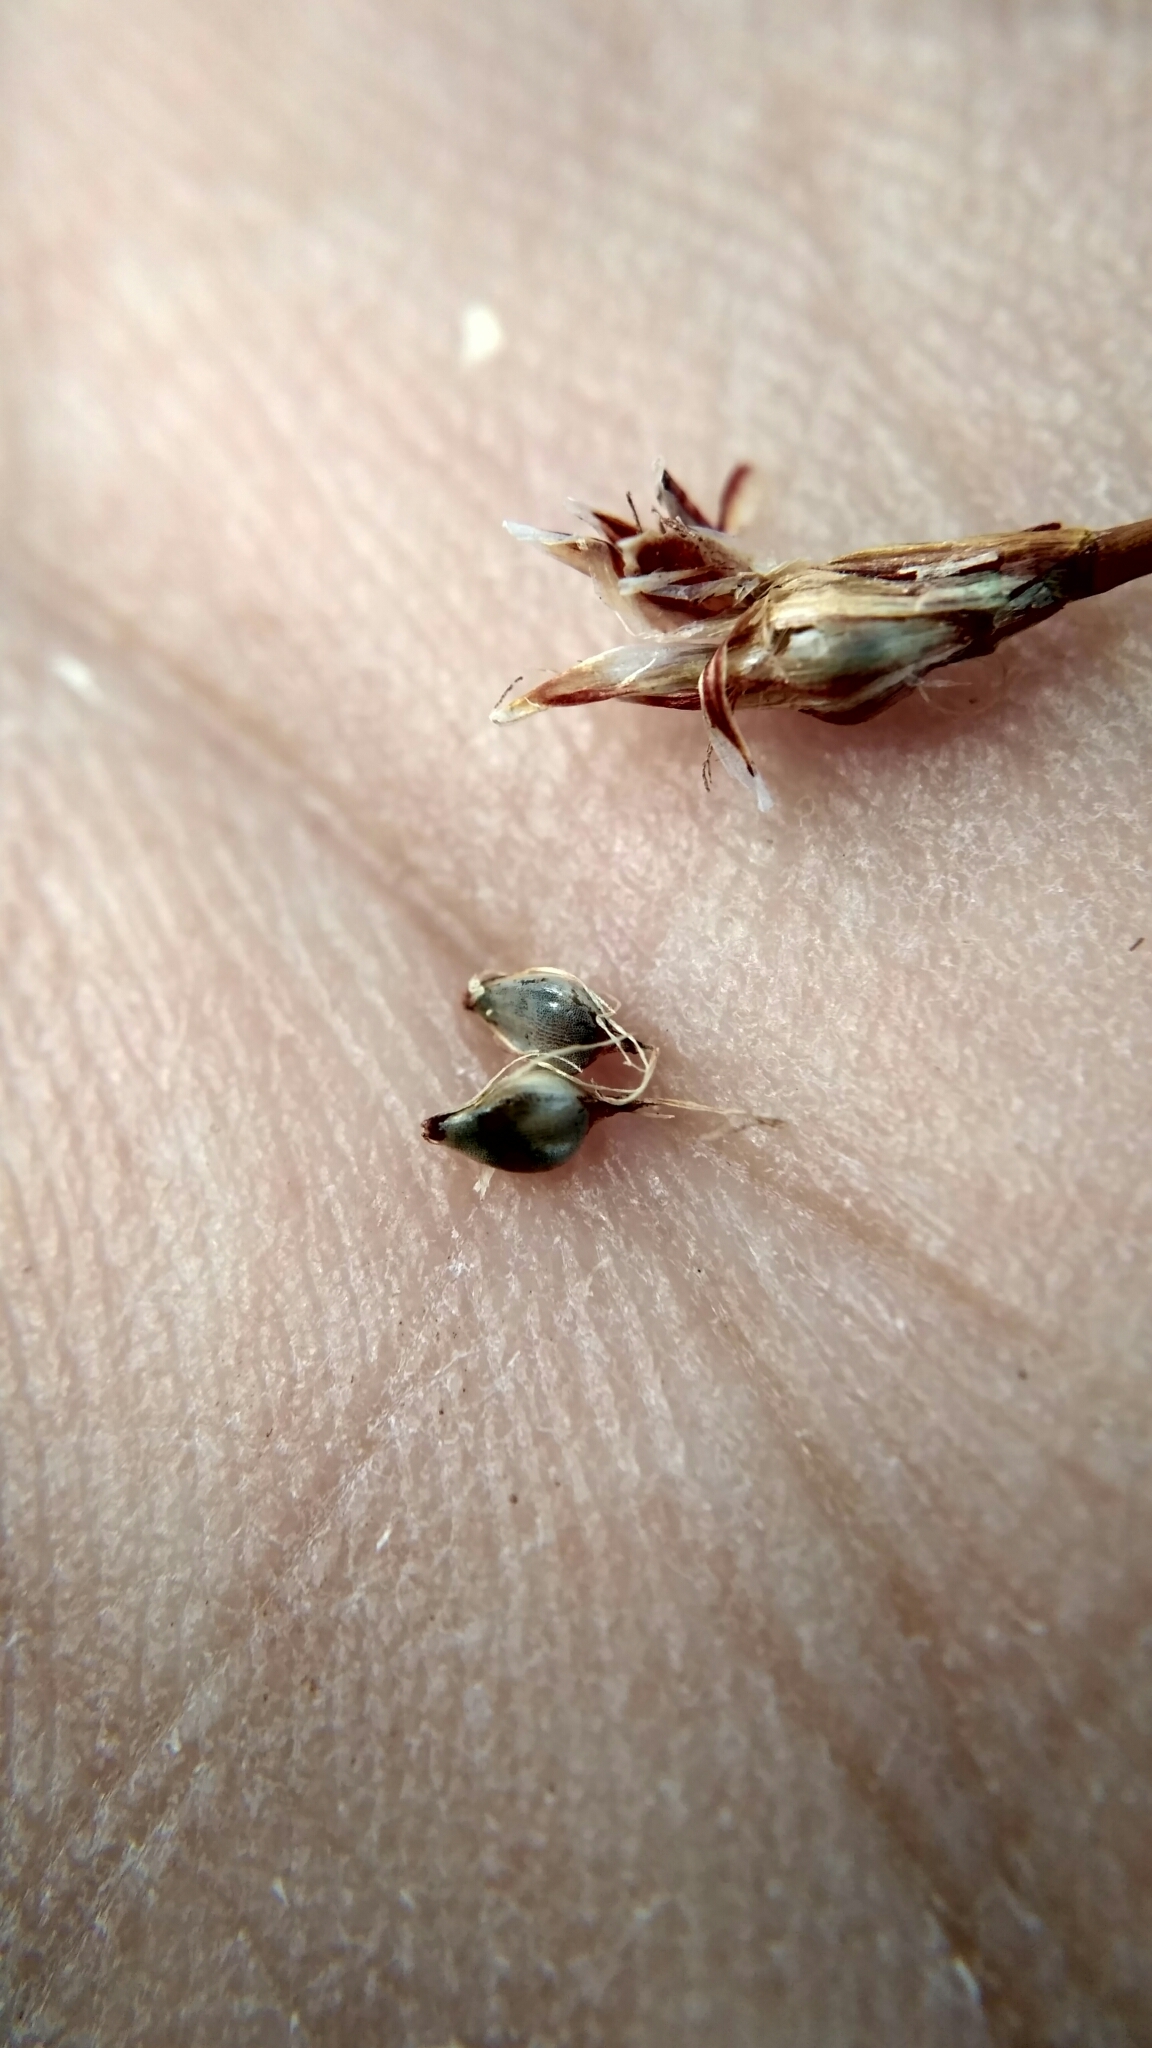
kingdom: Plantae
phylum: Tracheophyta
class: Liliopsida
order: Poales
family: Cyperaceae
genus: Eleocharis
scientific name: Eleocharis quinqueflora
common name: Few-flowered spike-rush
